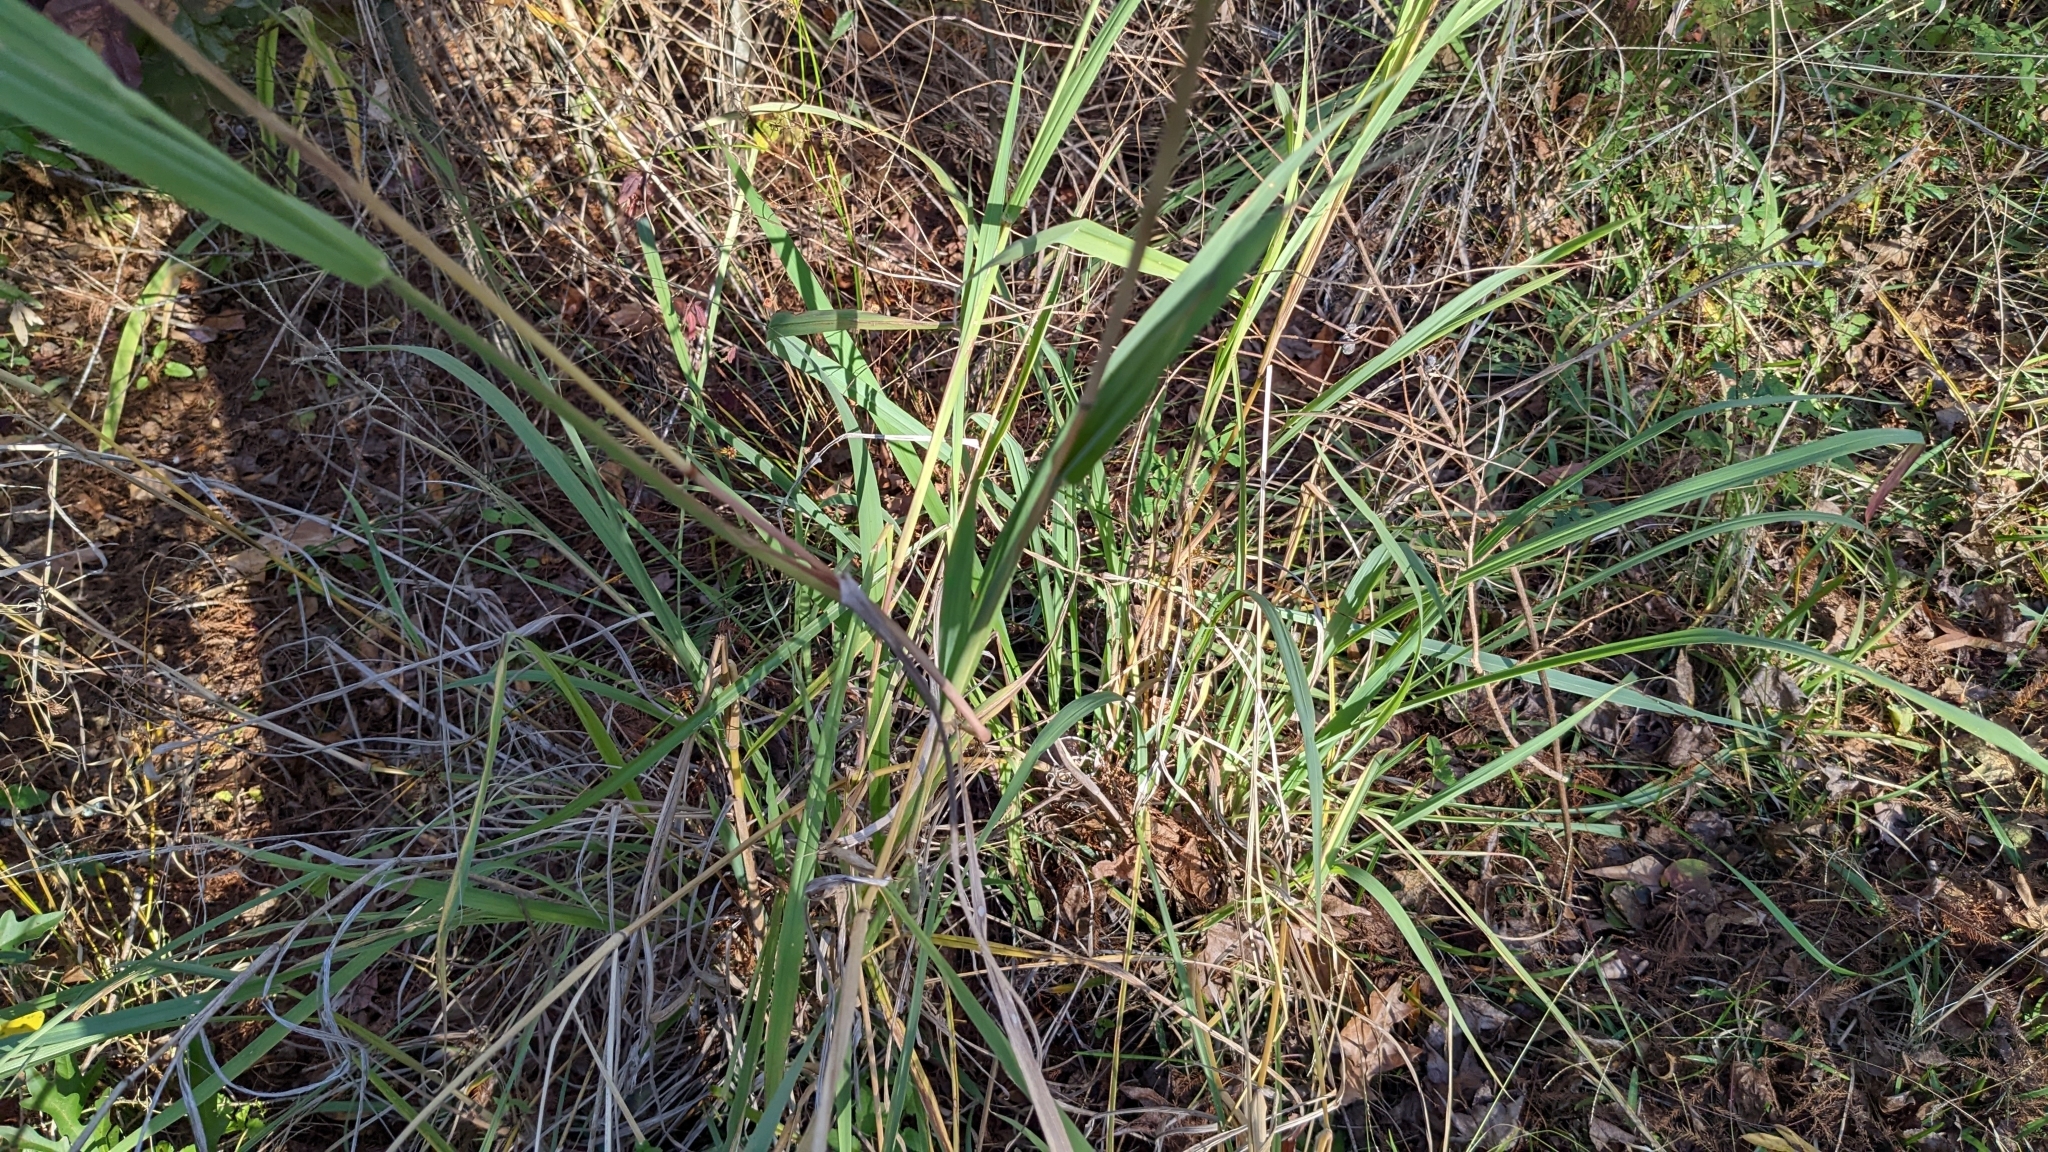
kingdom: Plantae
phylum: Tracheophyta
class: Liliopsida
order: Poales
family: Poaceae
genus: Paspalum
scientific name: Paspalum urvillei
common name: Vasey's grass
